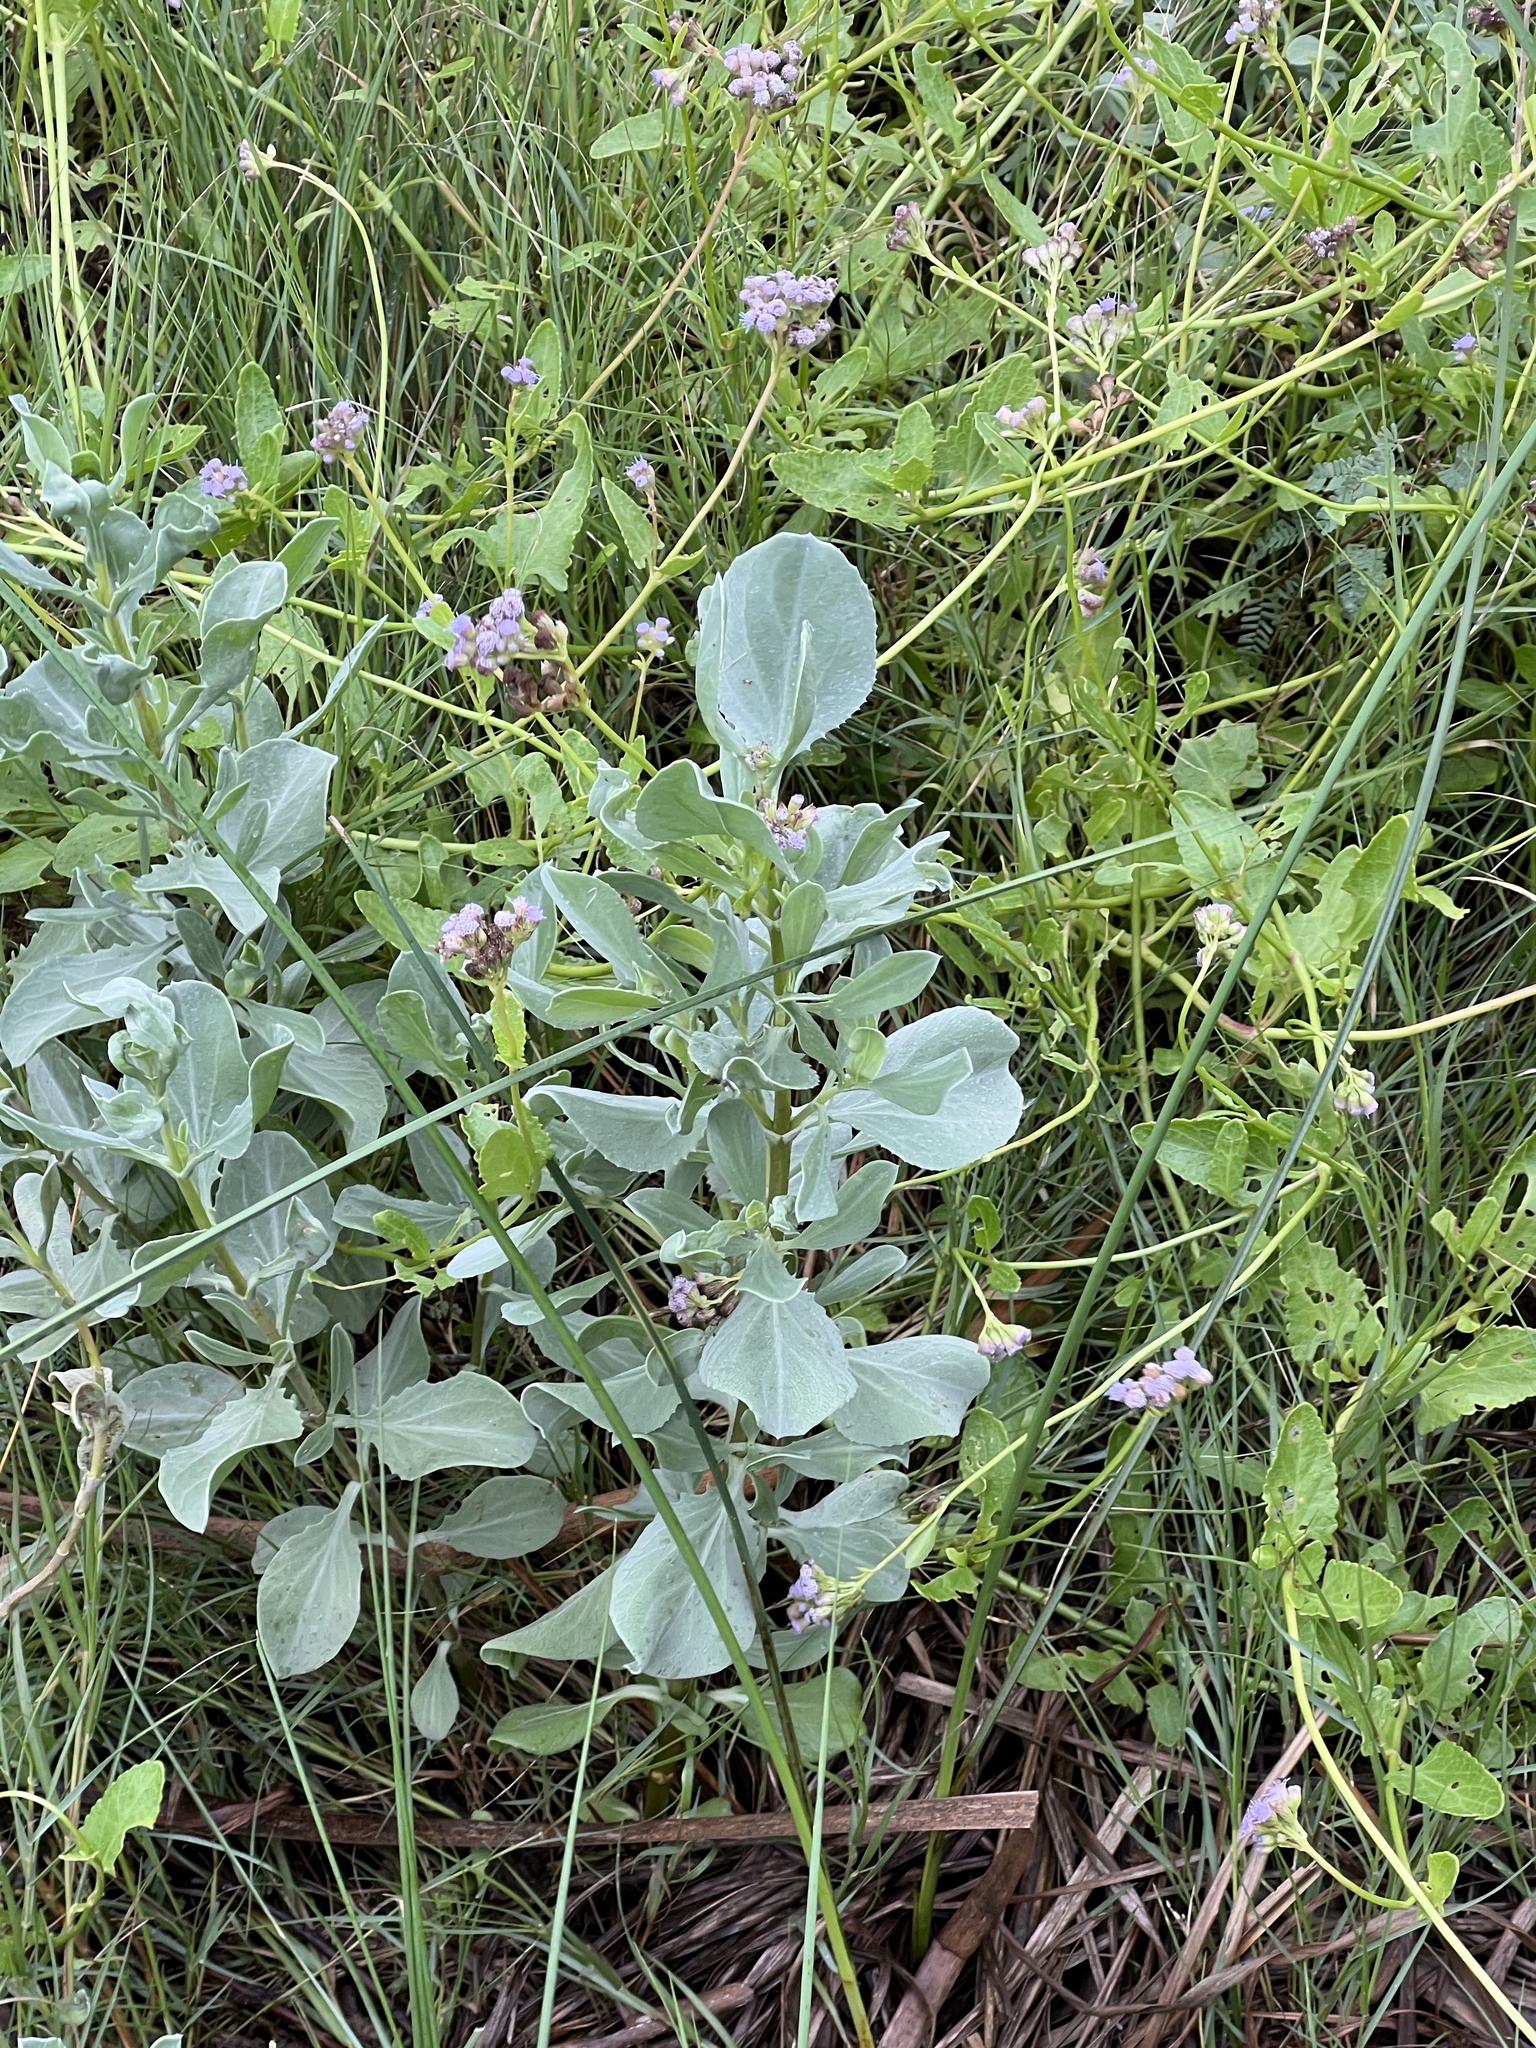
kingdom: Plantae
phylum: Tracheophyta
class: Magnoliopsida
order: Asterales
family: Asteraceae
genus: Borrichia
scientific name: Borrichia frutescens
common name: Sea oxeye
